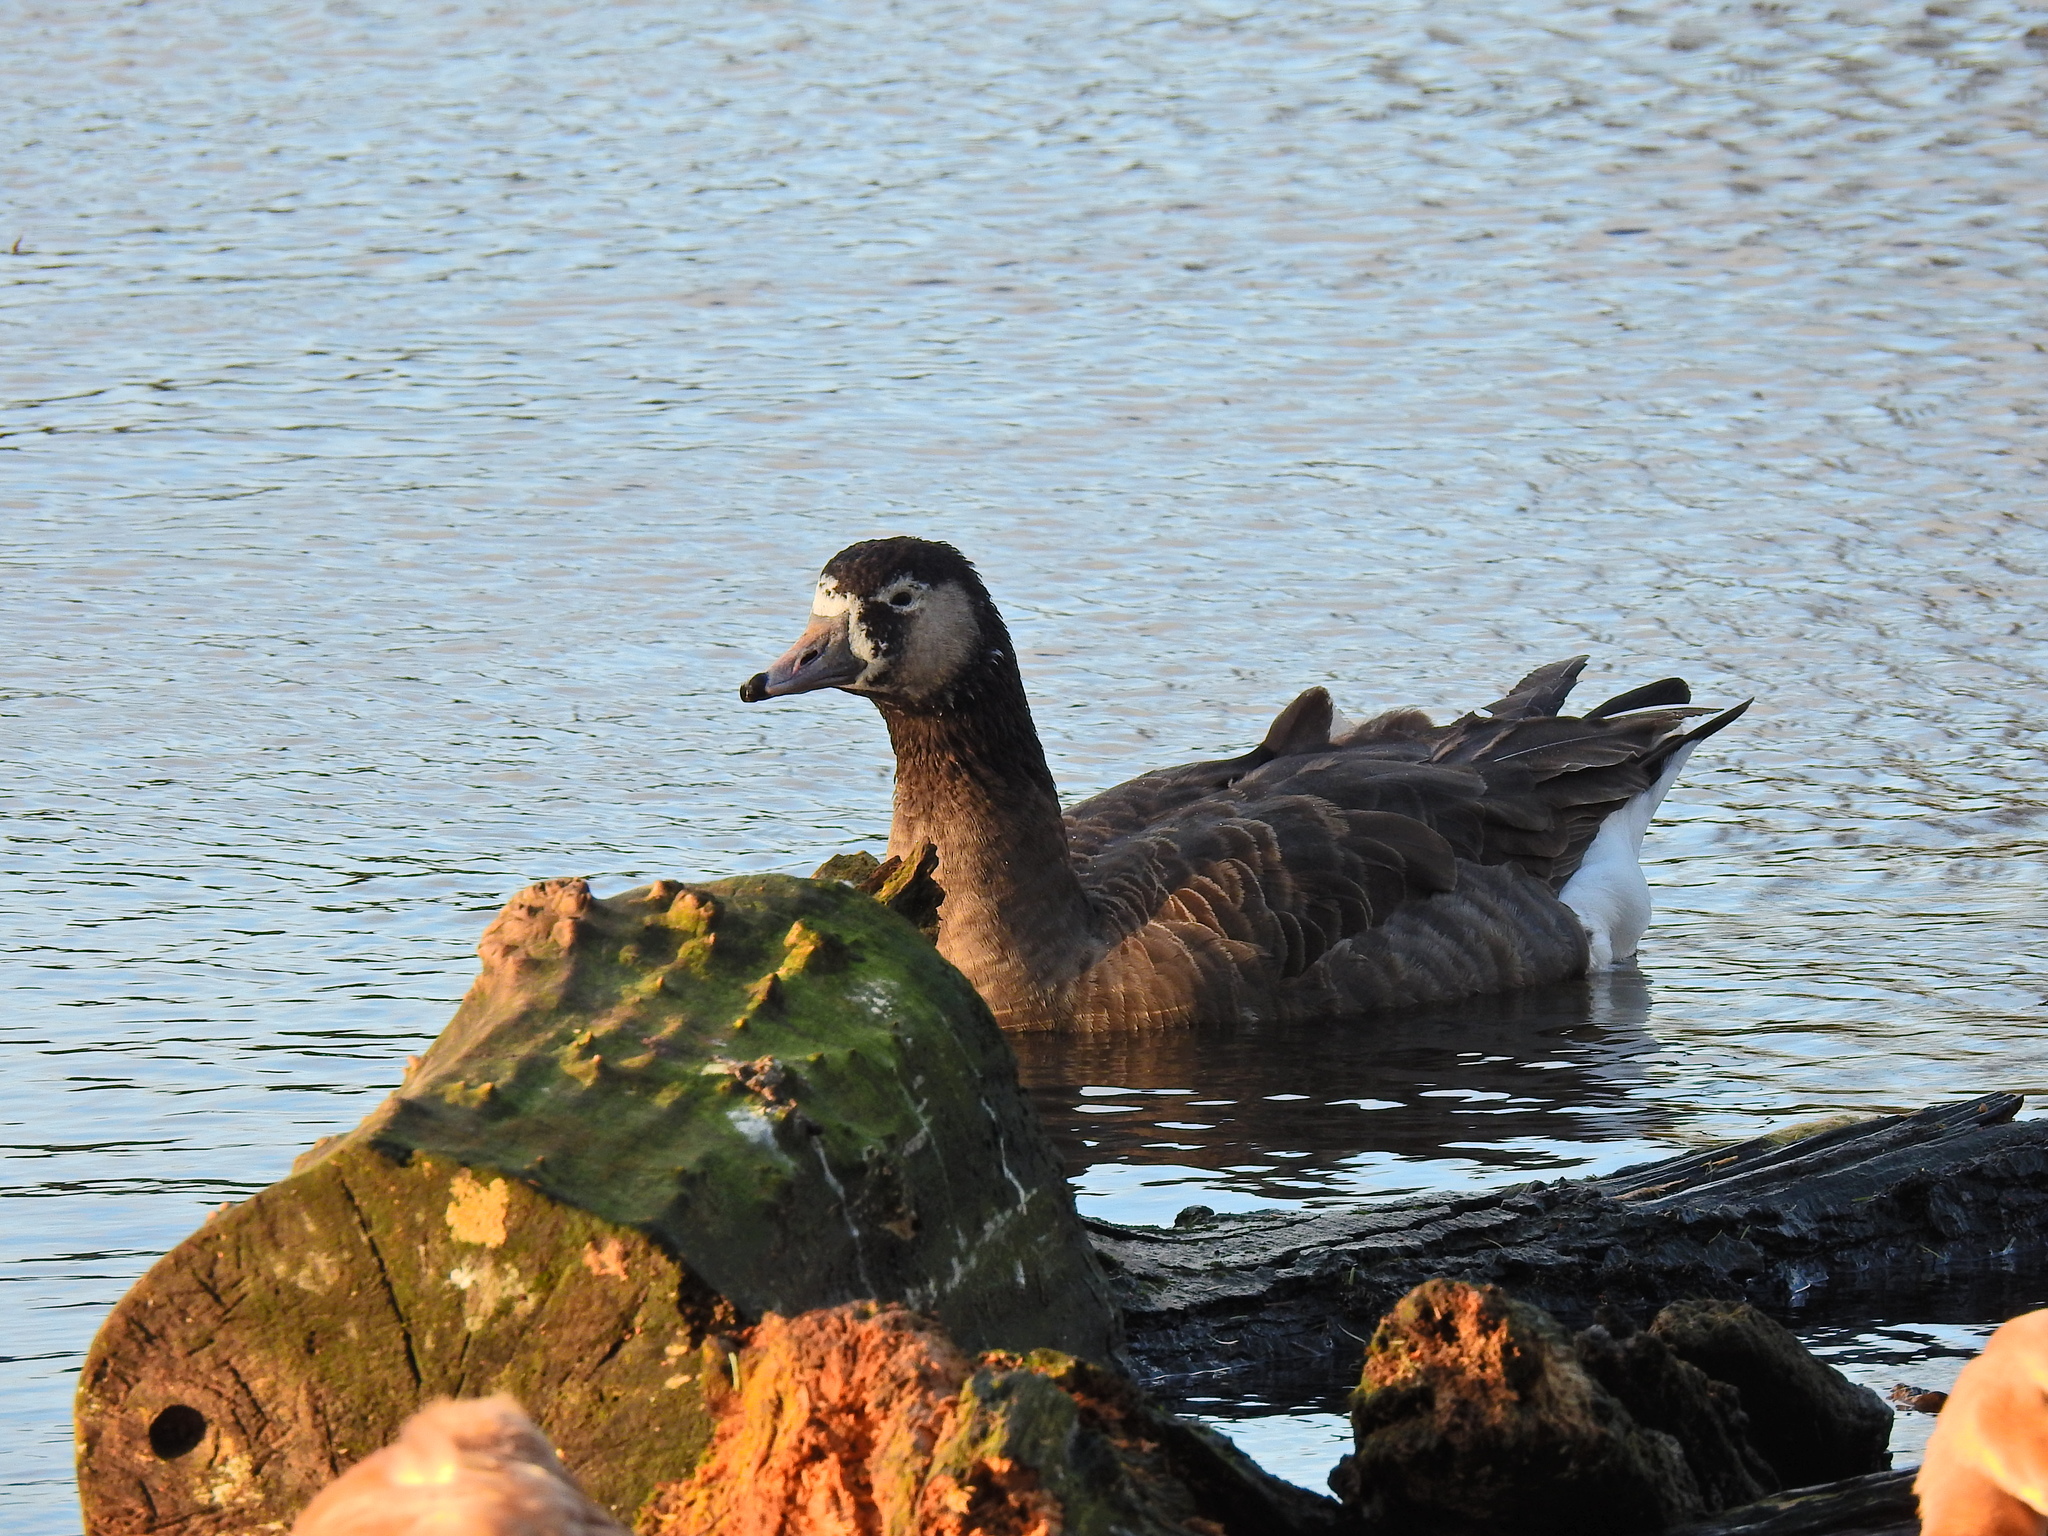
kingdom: Animalia
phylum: Chordata
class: Aves
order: Anseriformes
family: Anatidae
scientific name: Anatidae
